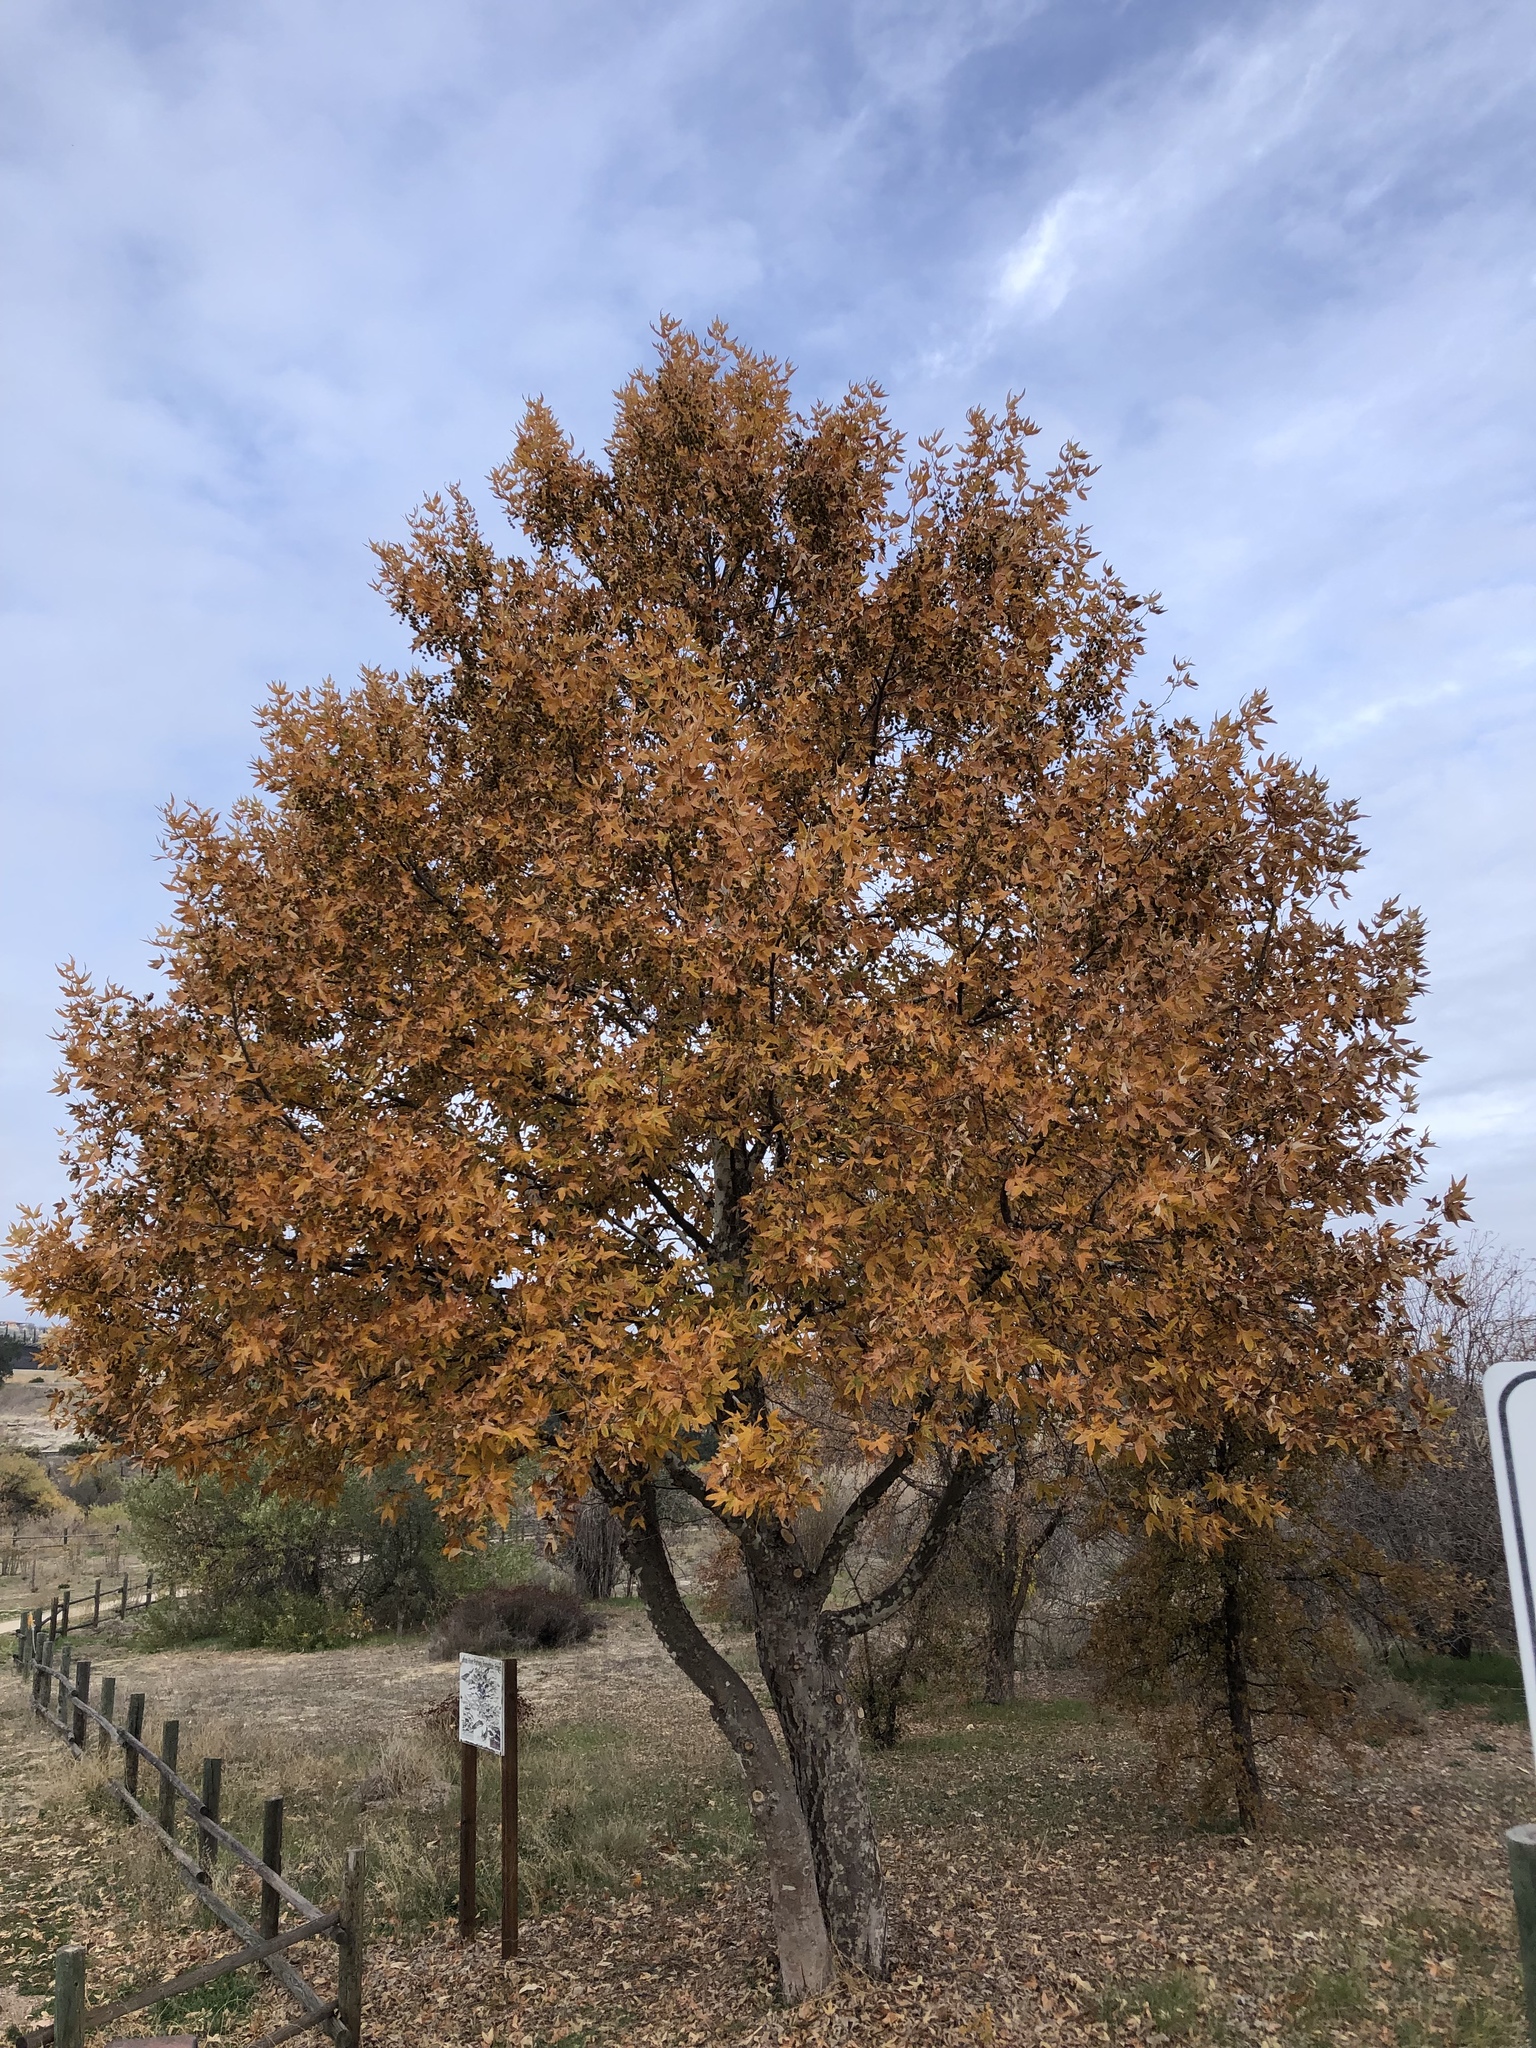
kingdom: Plantae
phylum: Tracheophyta
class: Magnoliopsida
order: Proteales
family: Platanaceae
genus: Platanus
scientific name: Platanus racemosa
